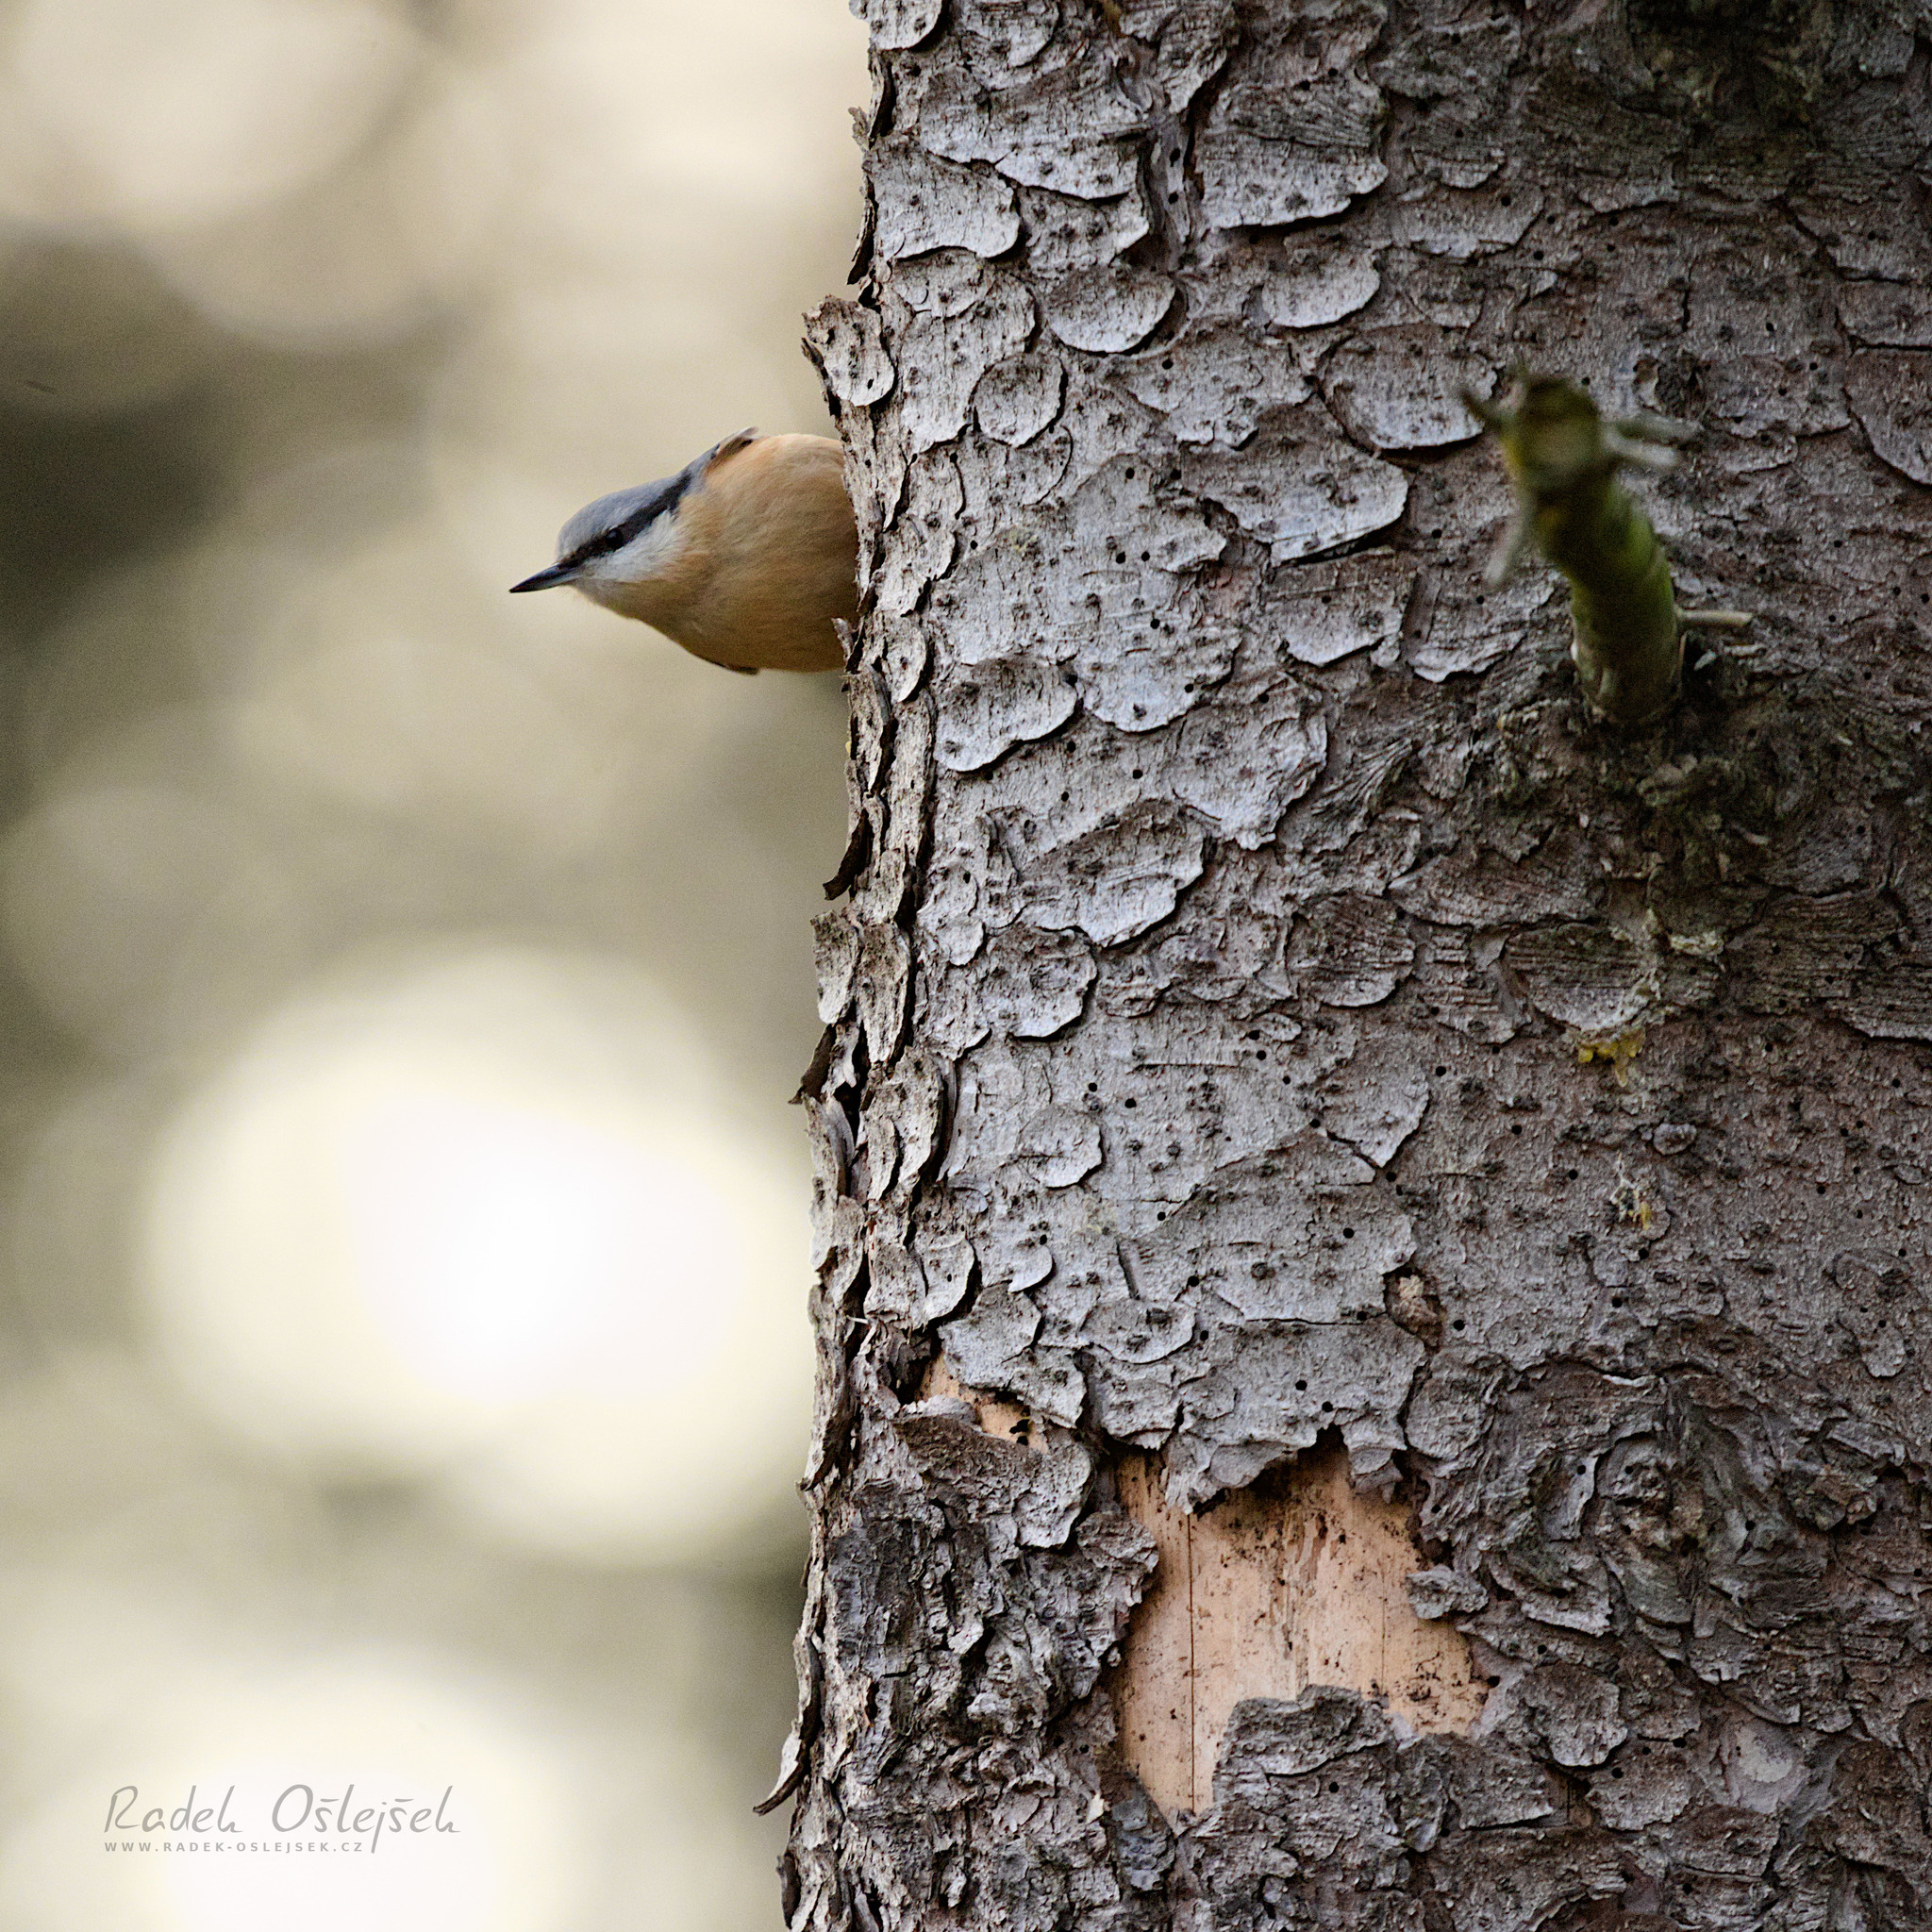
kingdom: Animalia
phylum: Chordata
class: Aves
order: Passeriformes
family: Sittidae
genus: Sitta
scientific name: Sitta europaea
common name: Eurasian nuthatch
